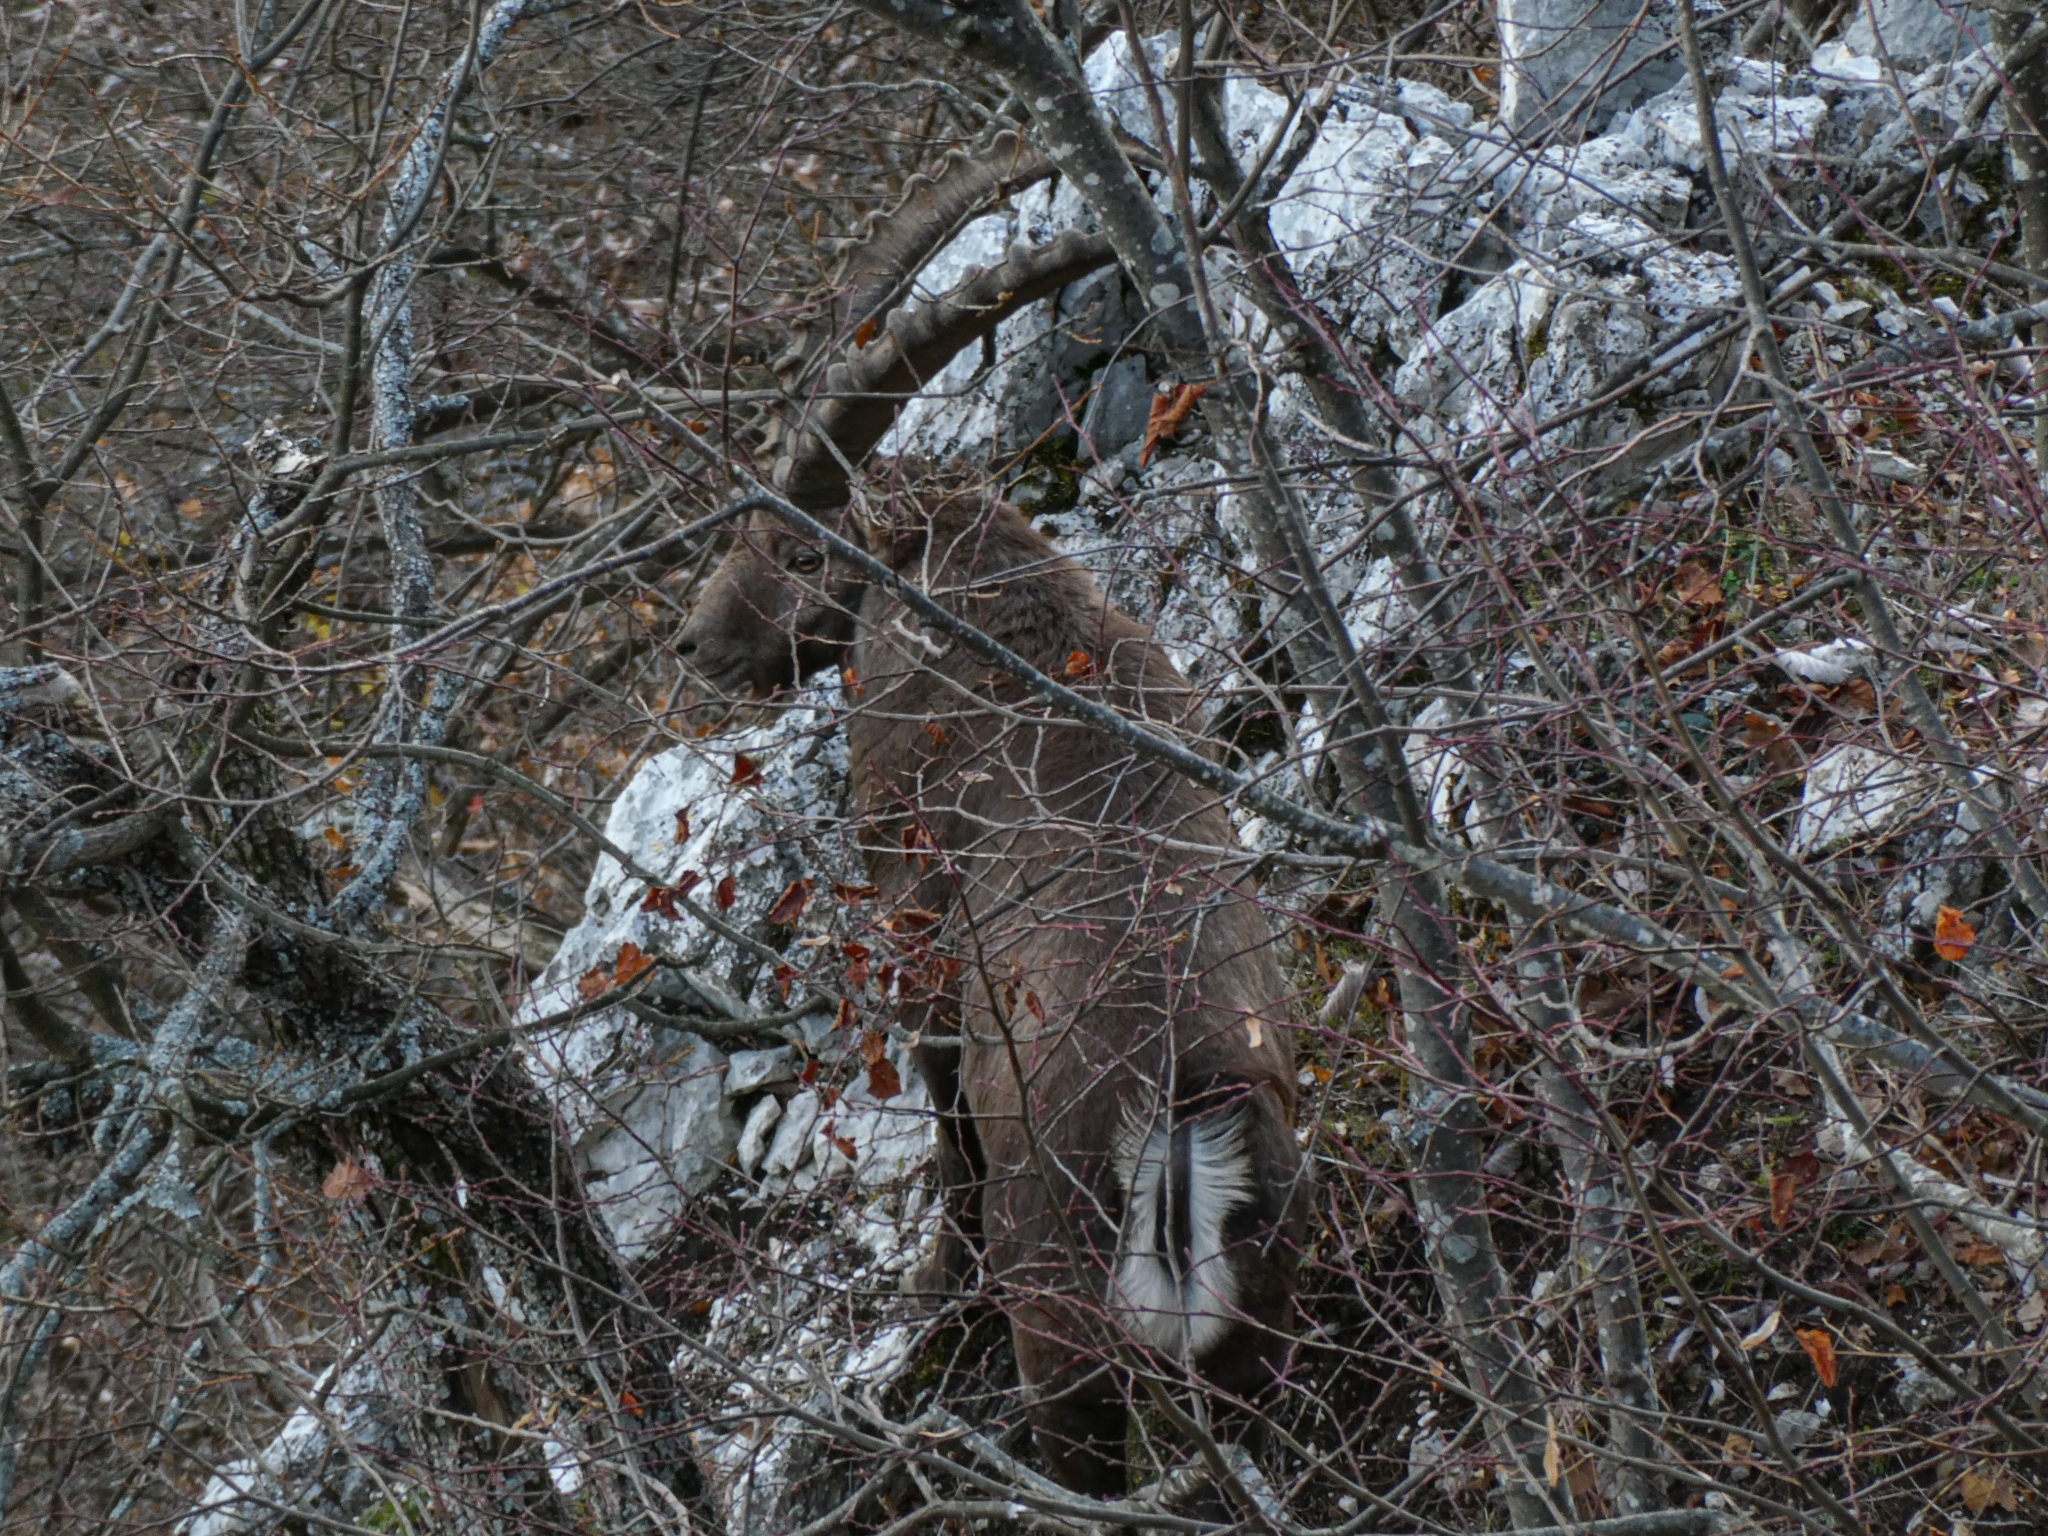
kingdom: Animalia
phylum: Chordata
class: Mammalia
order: Artiodactyla
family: Bovidae
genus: Capra
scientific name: Capra ibex
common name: Alpine ibex
